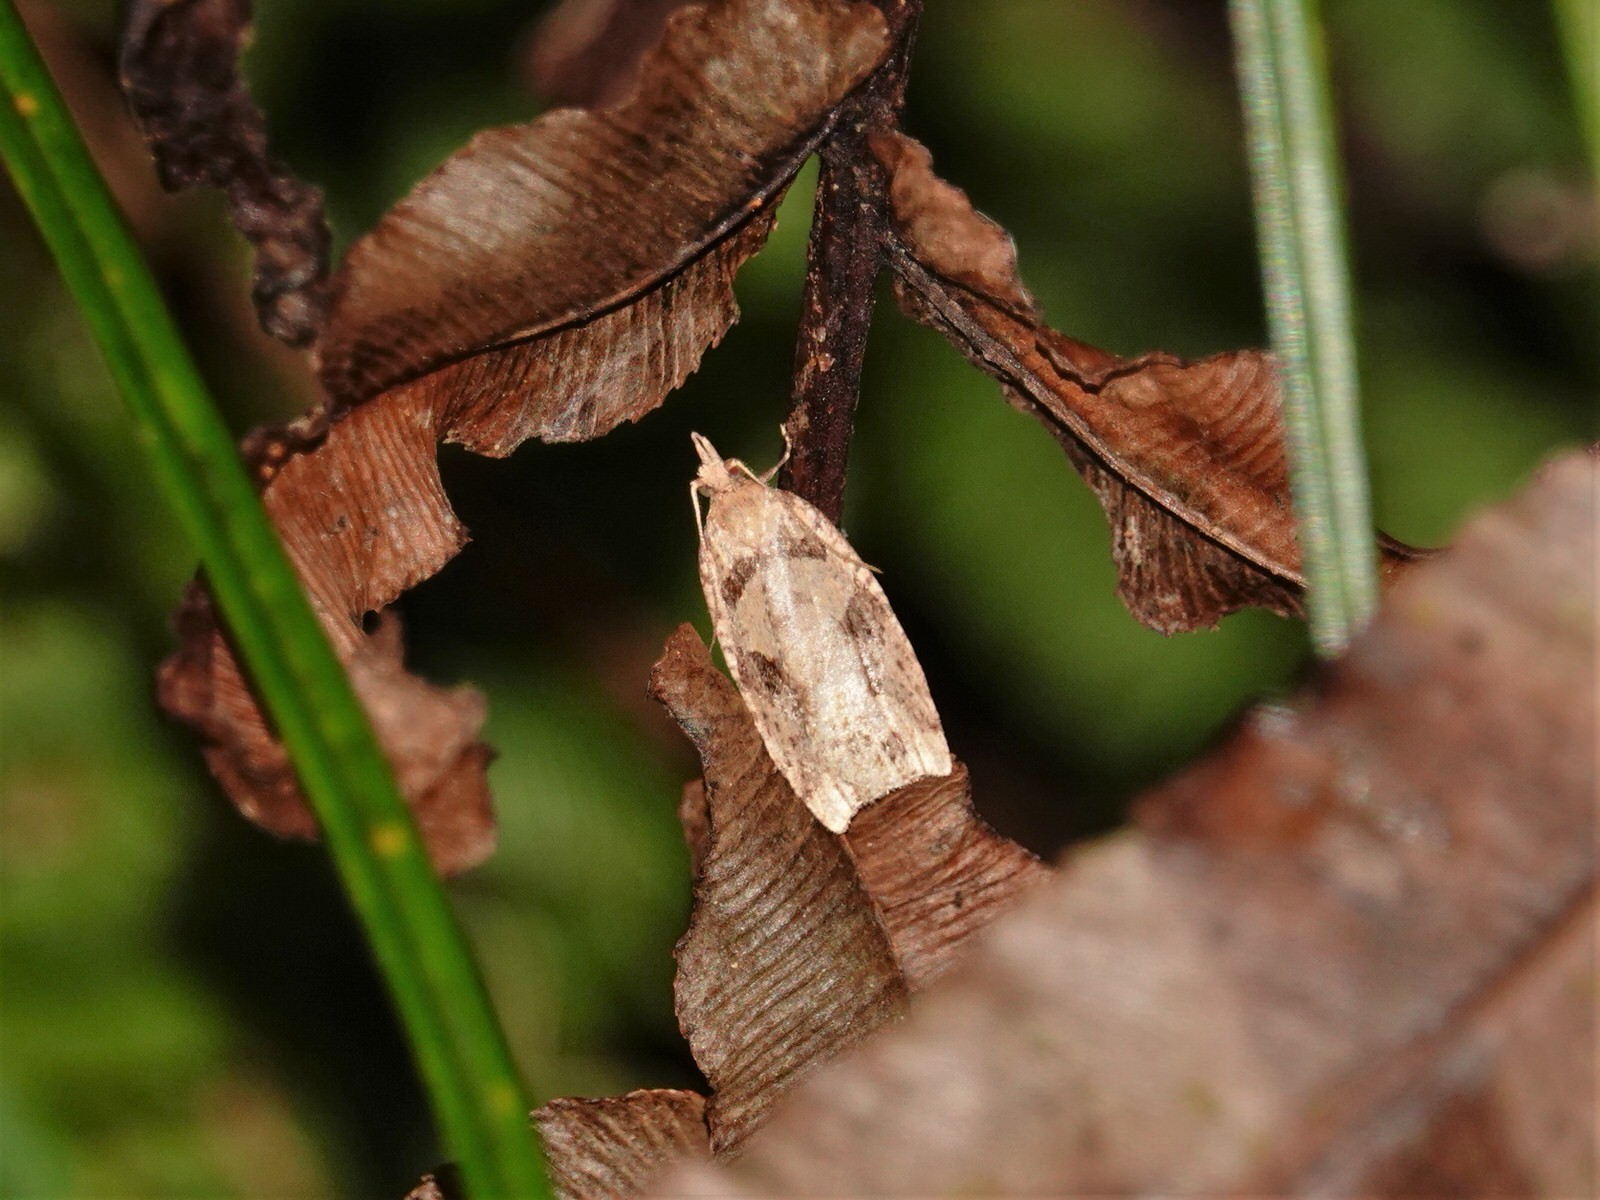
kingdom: Animalia
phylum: Arthropoda
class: Insecta
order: Lepidoptera
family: Tortricidae
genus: Ctenopseustis
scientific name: Ctenopseustis obliquana
